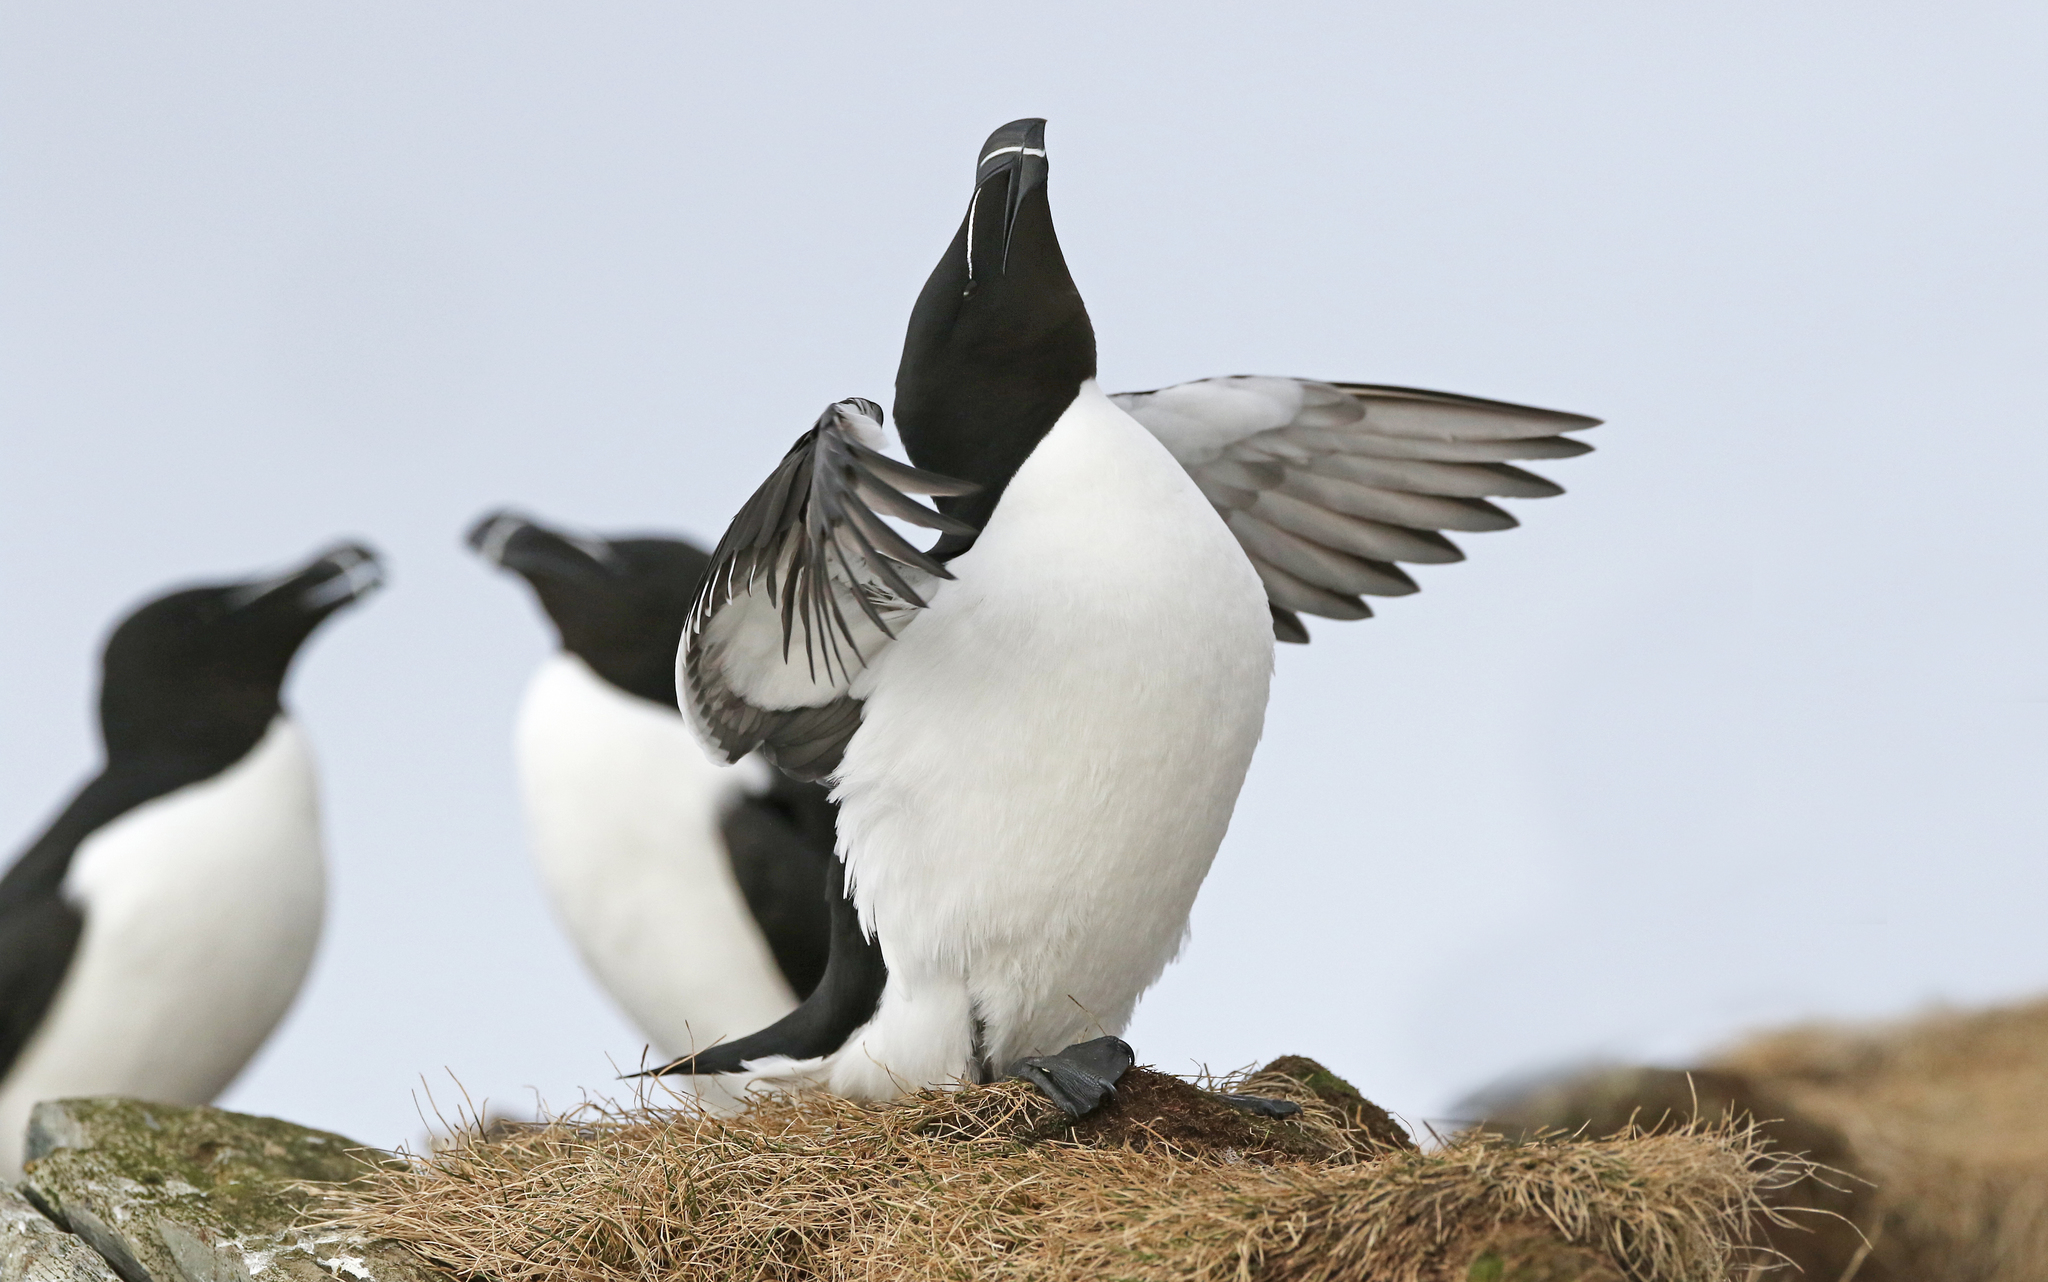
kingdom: Animalia
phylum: Chordata
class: Aves
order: Charadriiformes
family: Alcidae
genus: Alca
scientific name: Alca torda
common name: Razorbill
